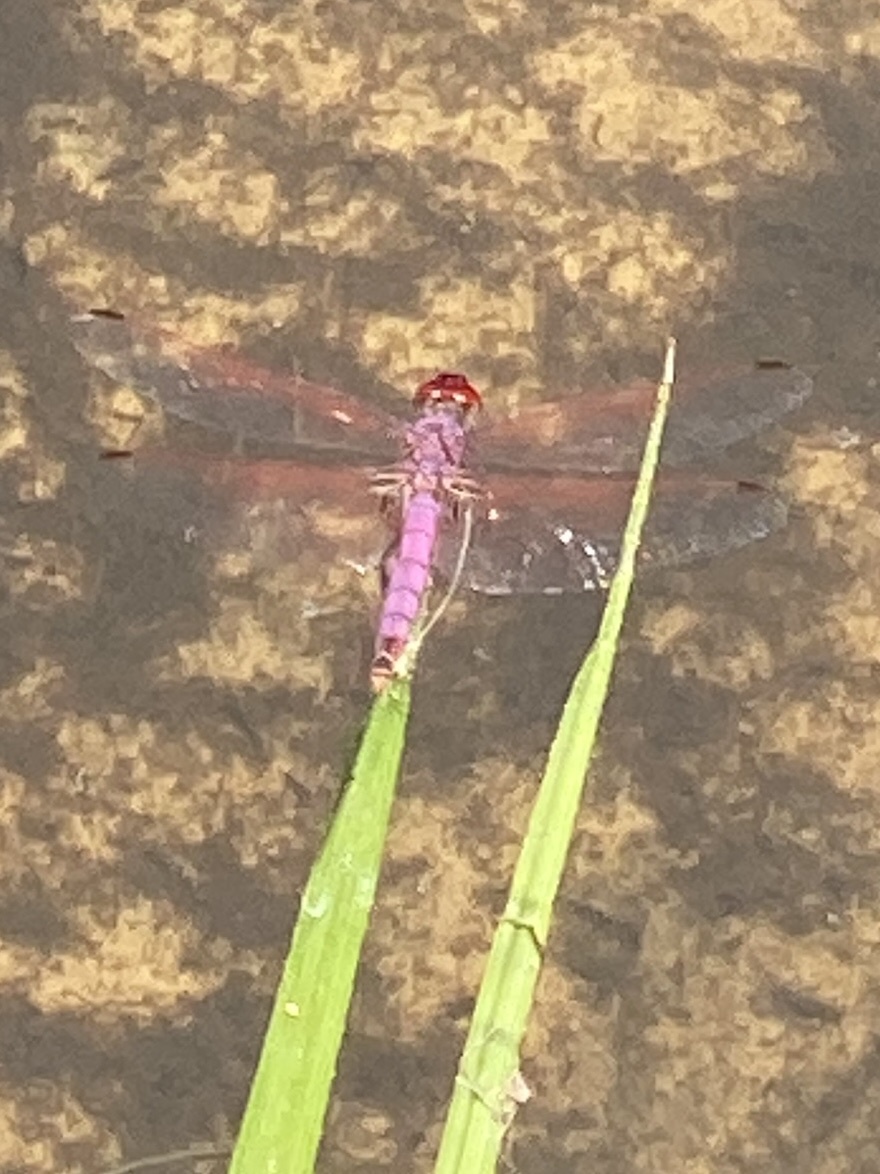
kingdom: Animalia
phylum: Arthropoda
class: Insecta
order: Odonata
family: Libellulidae
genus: Trithemis
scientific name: Trithemis annulata
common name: Violet dropwing
